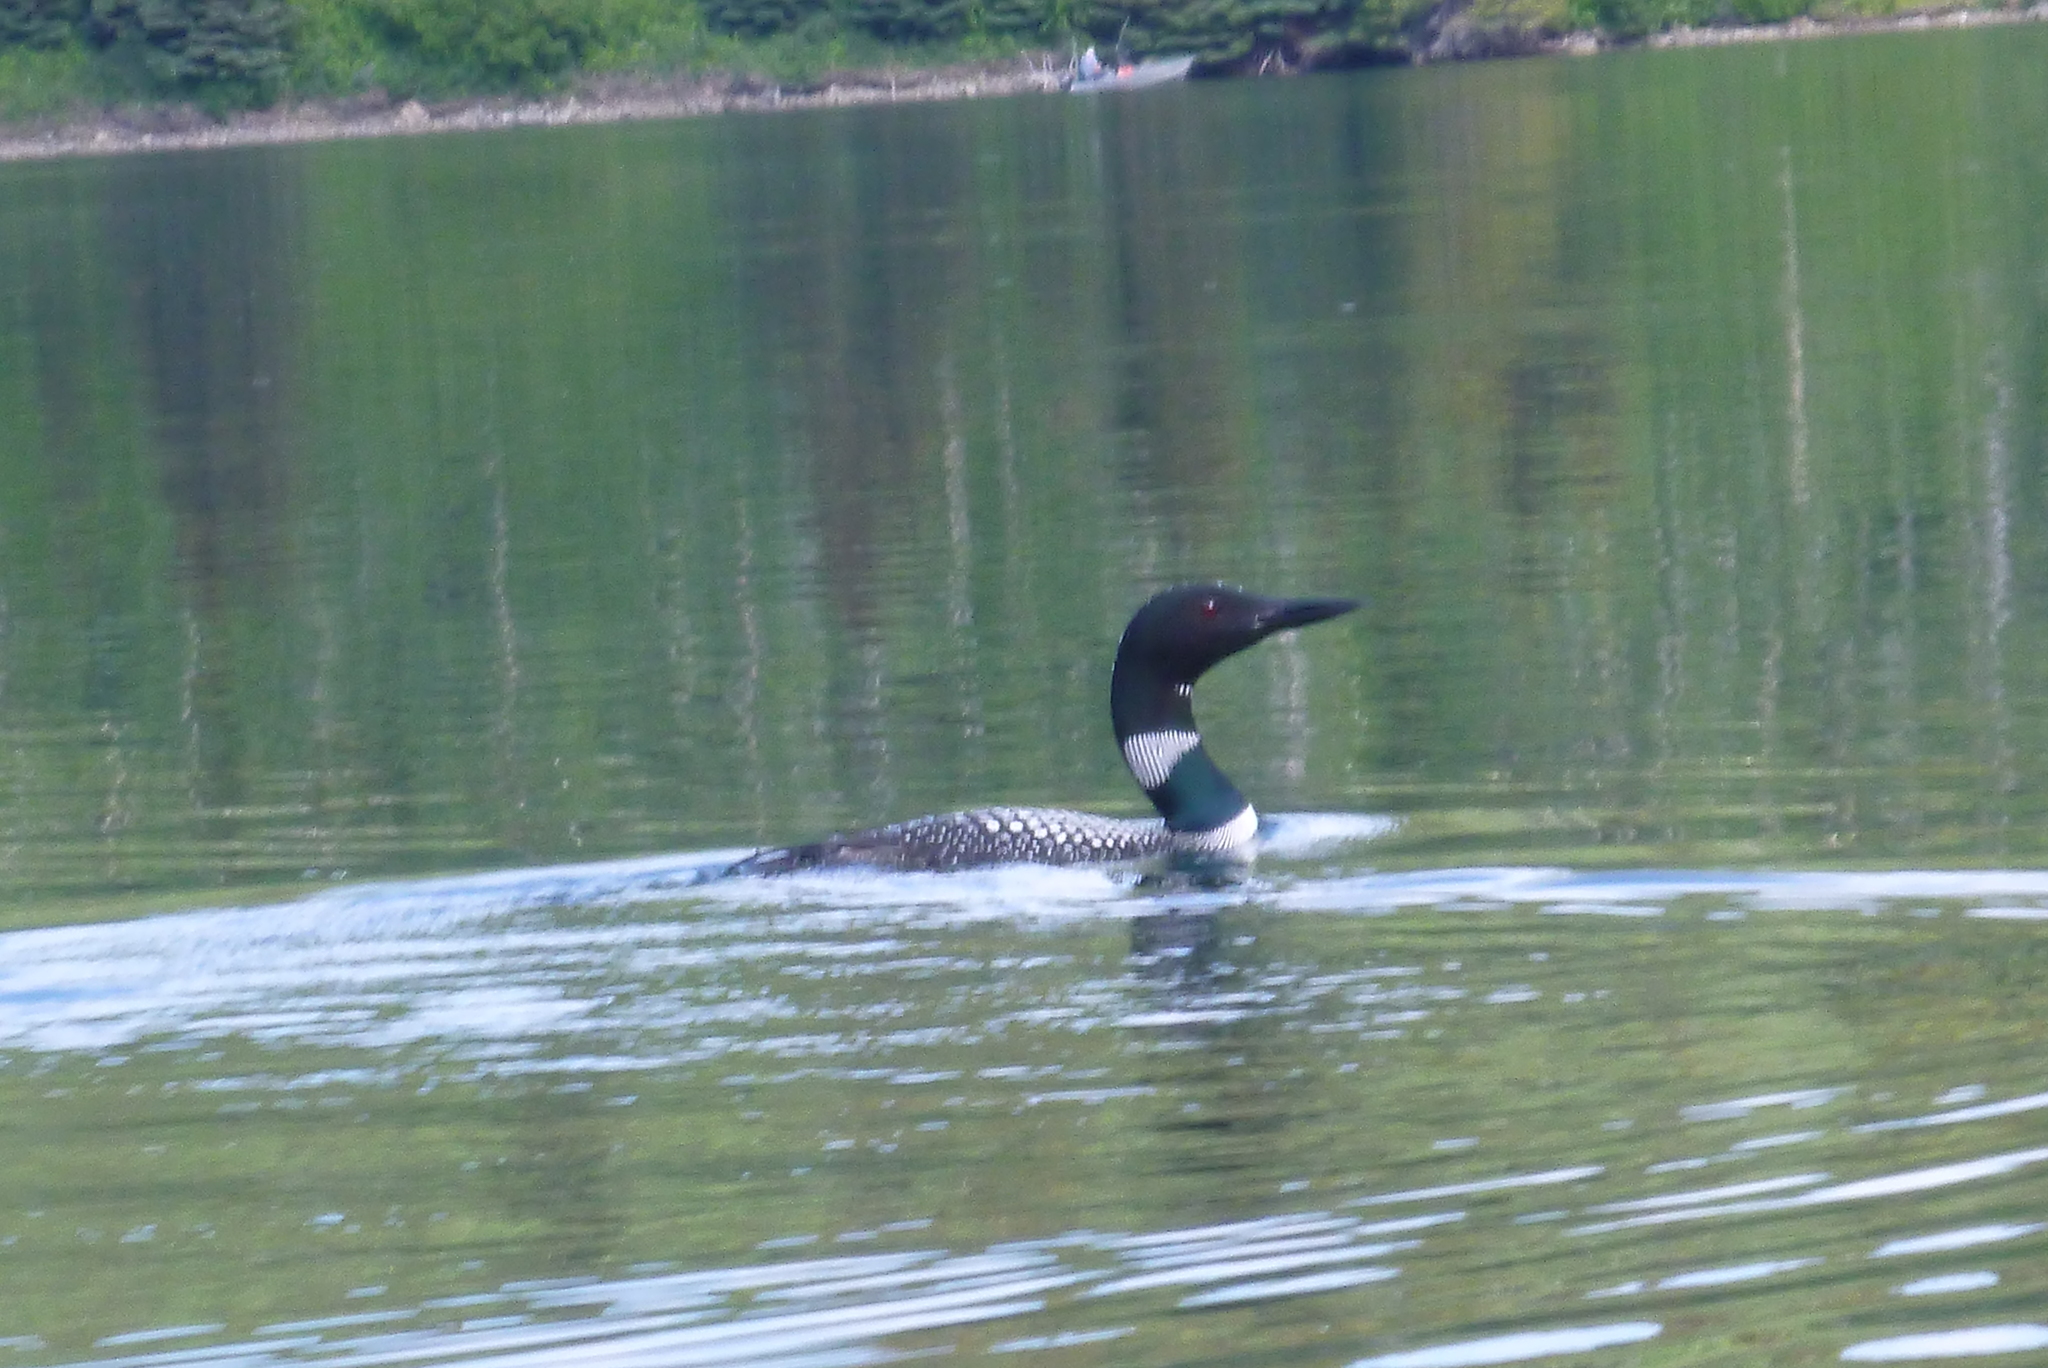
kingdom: Animalia
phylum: Chordata
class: Aves
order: Gaviiformes
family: Gaviidae
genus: Gavia
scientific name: Gavia immer
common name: Common loon
